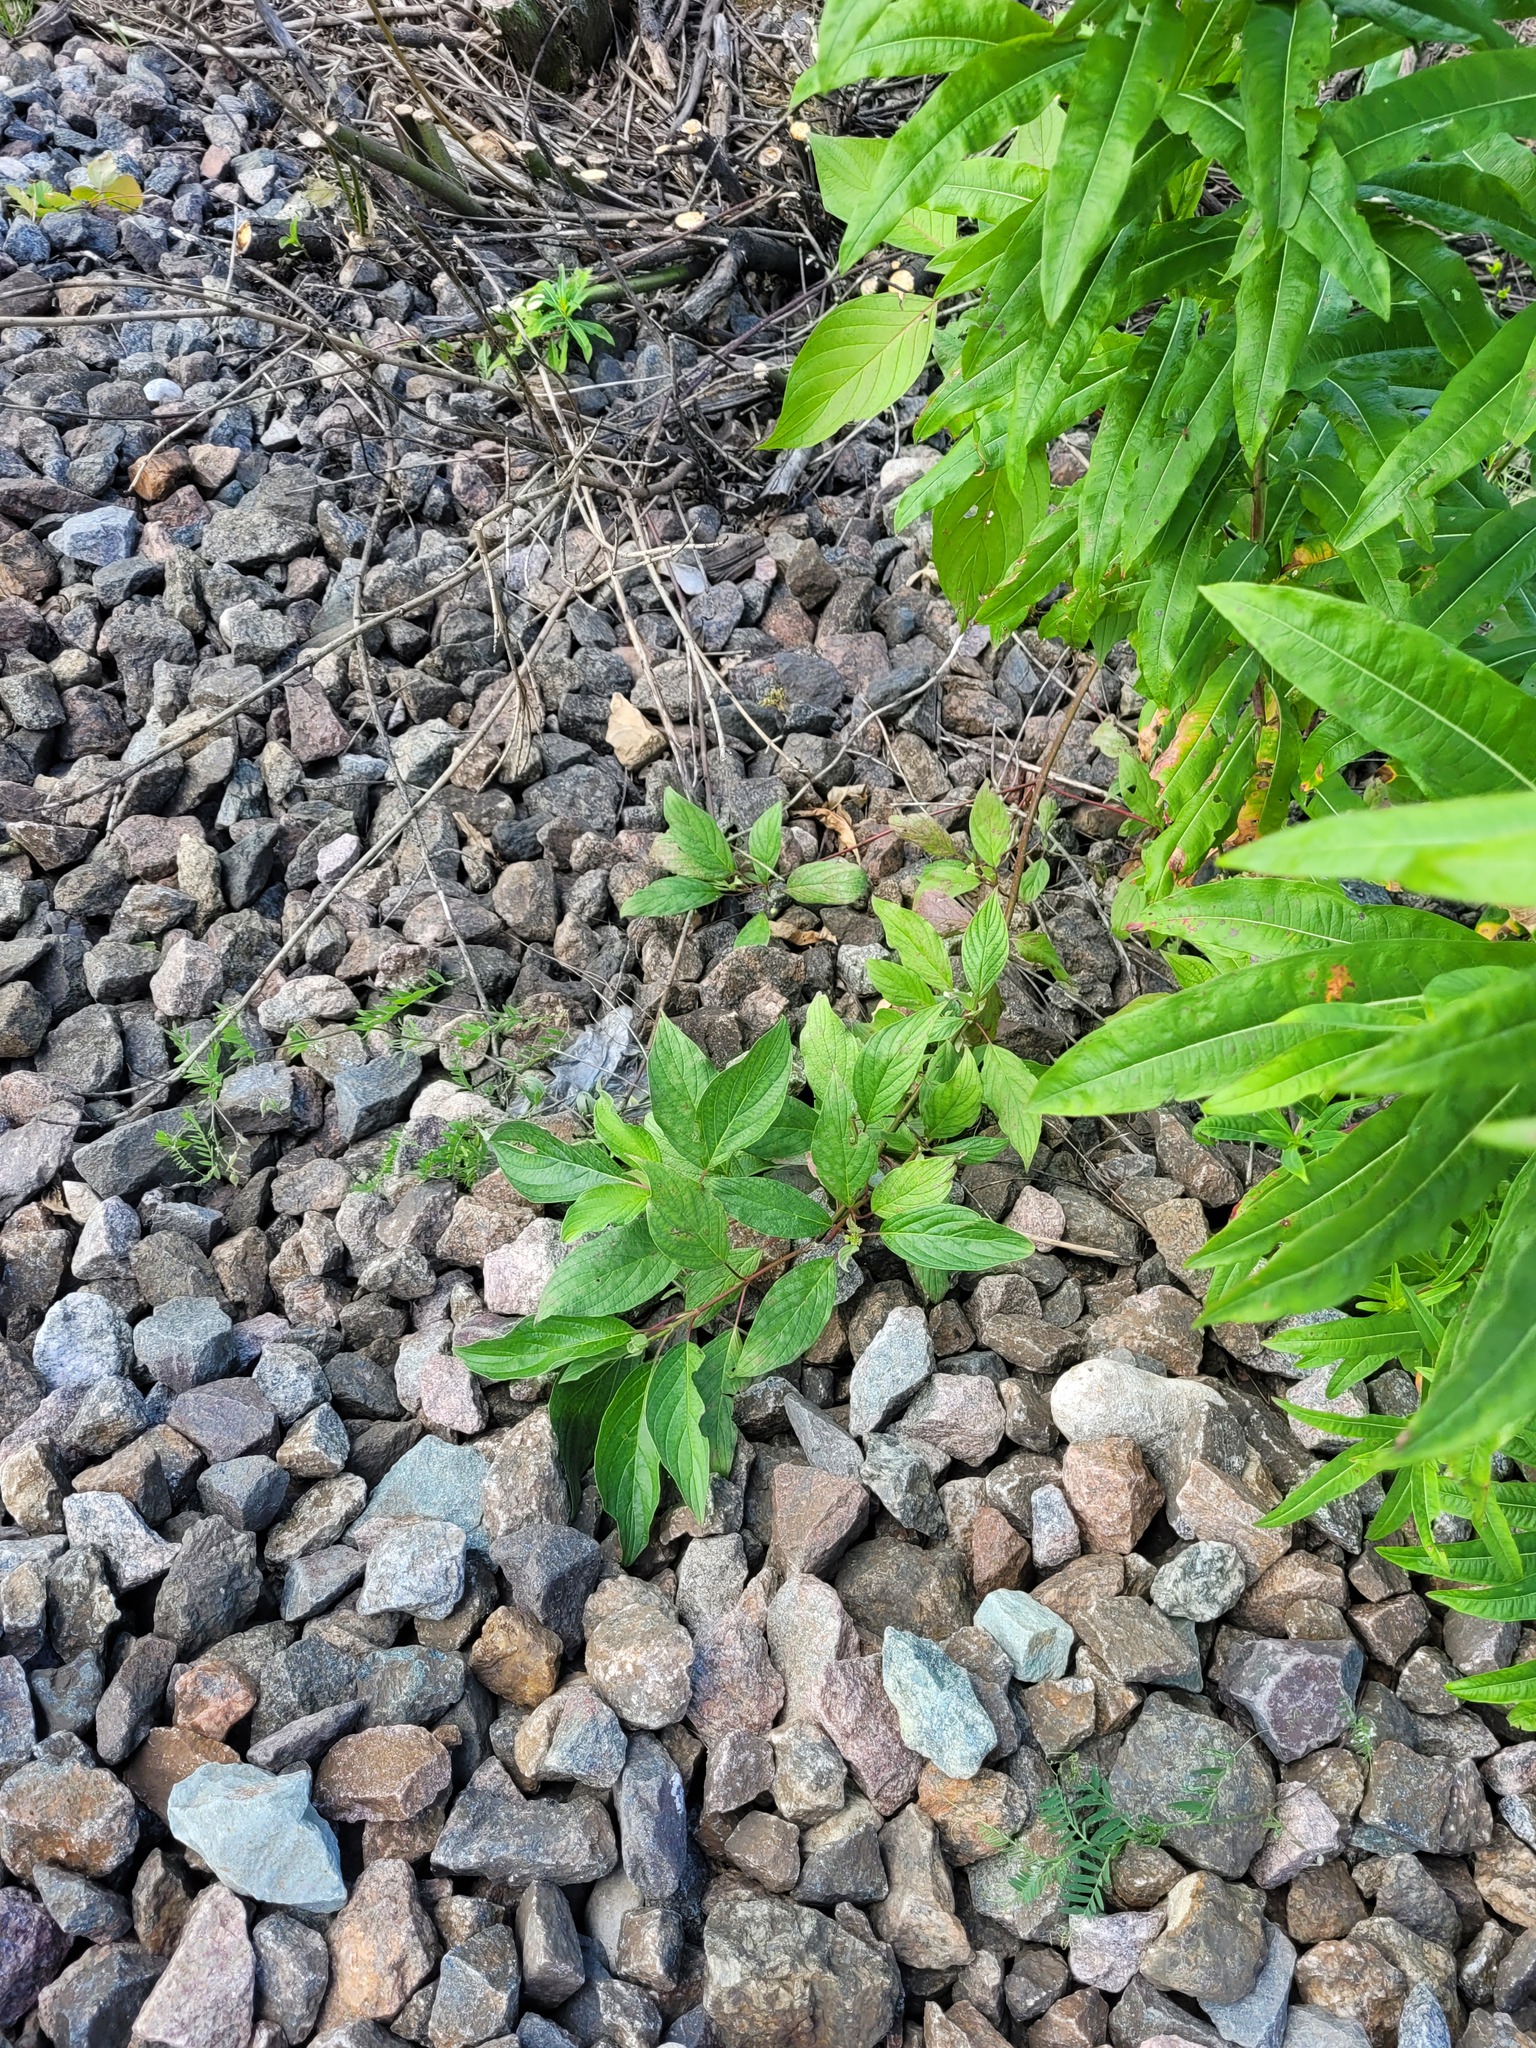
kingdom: Plantae
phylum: Tracheophyta
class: Magnoliopsida
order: Cornales
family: Cornaceae
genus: Cornus
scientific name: Cornus alba
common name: White dogwood
